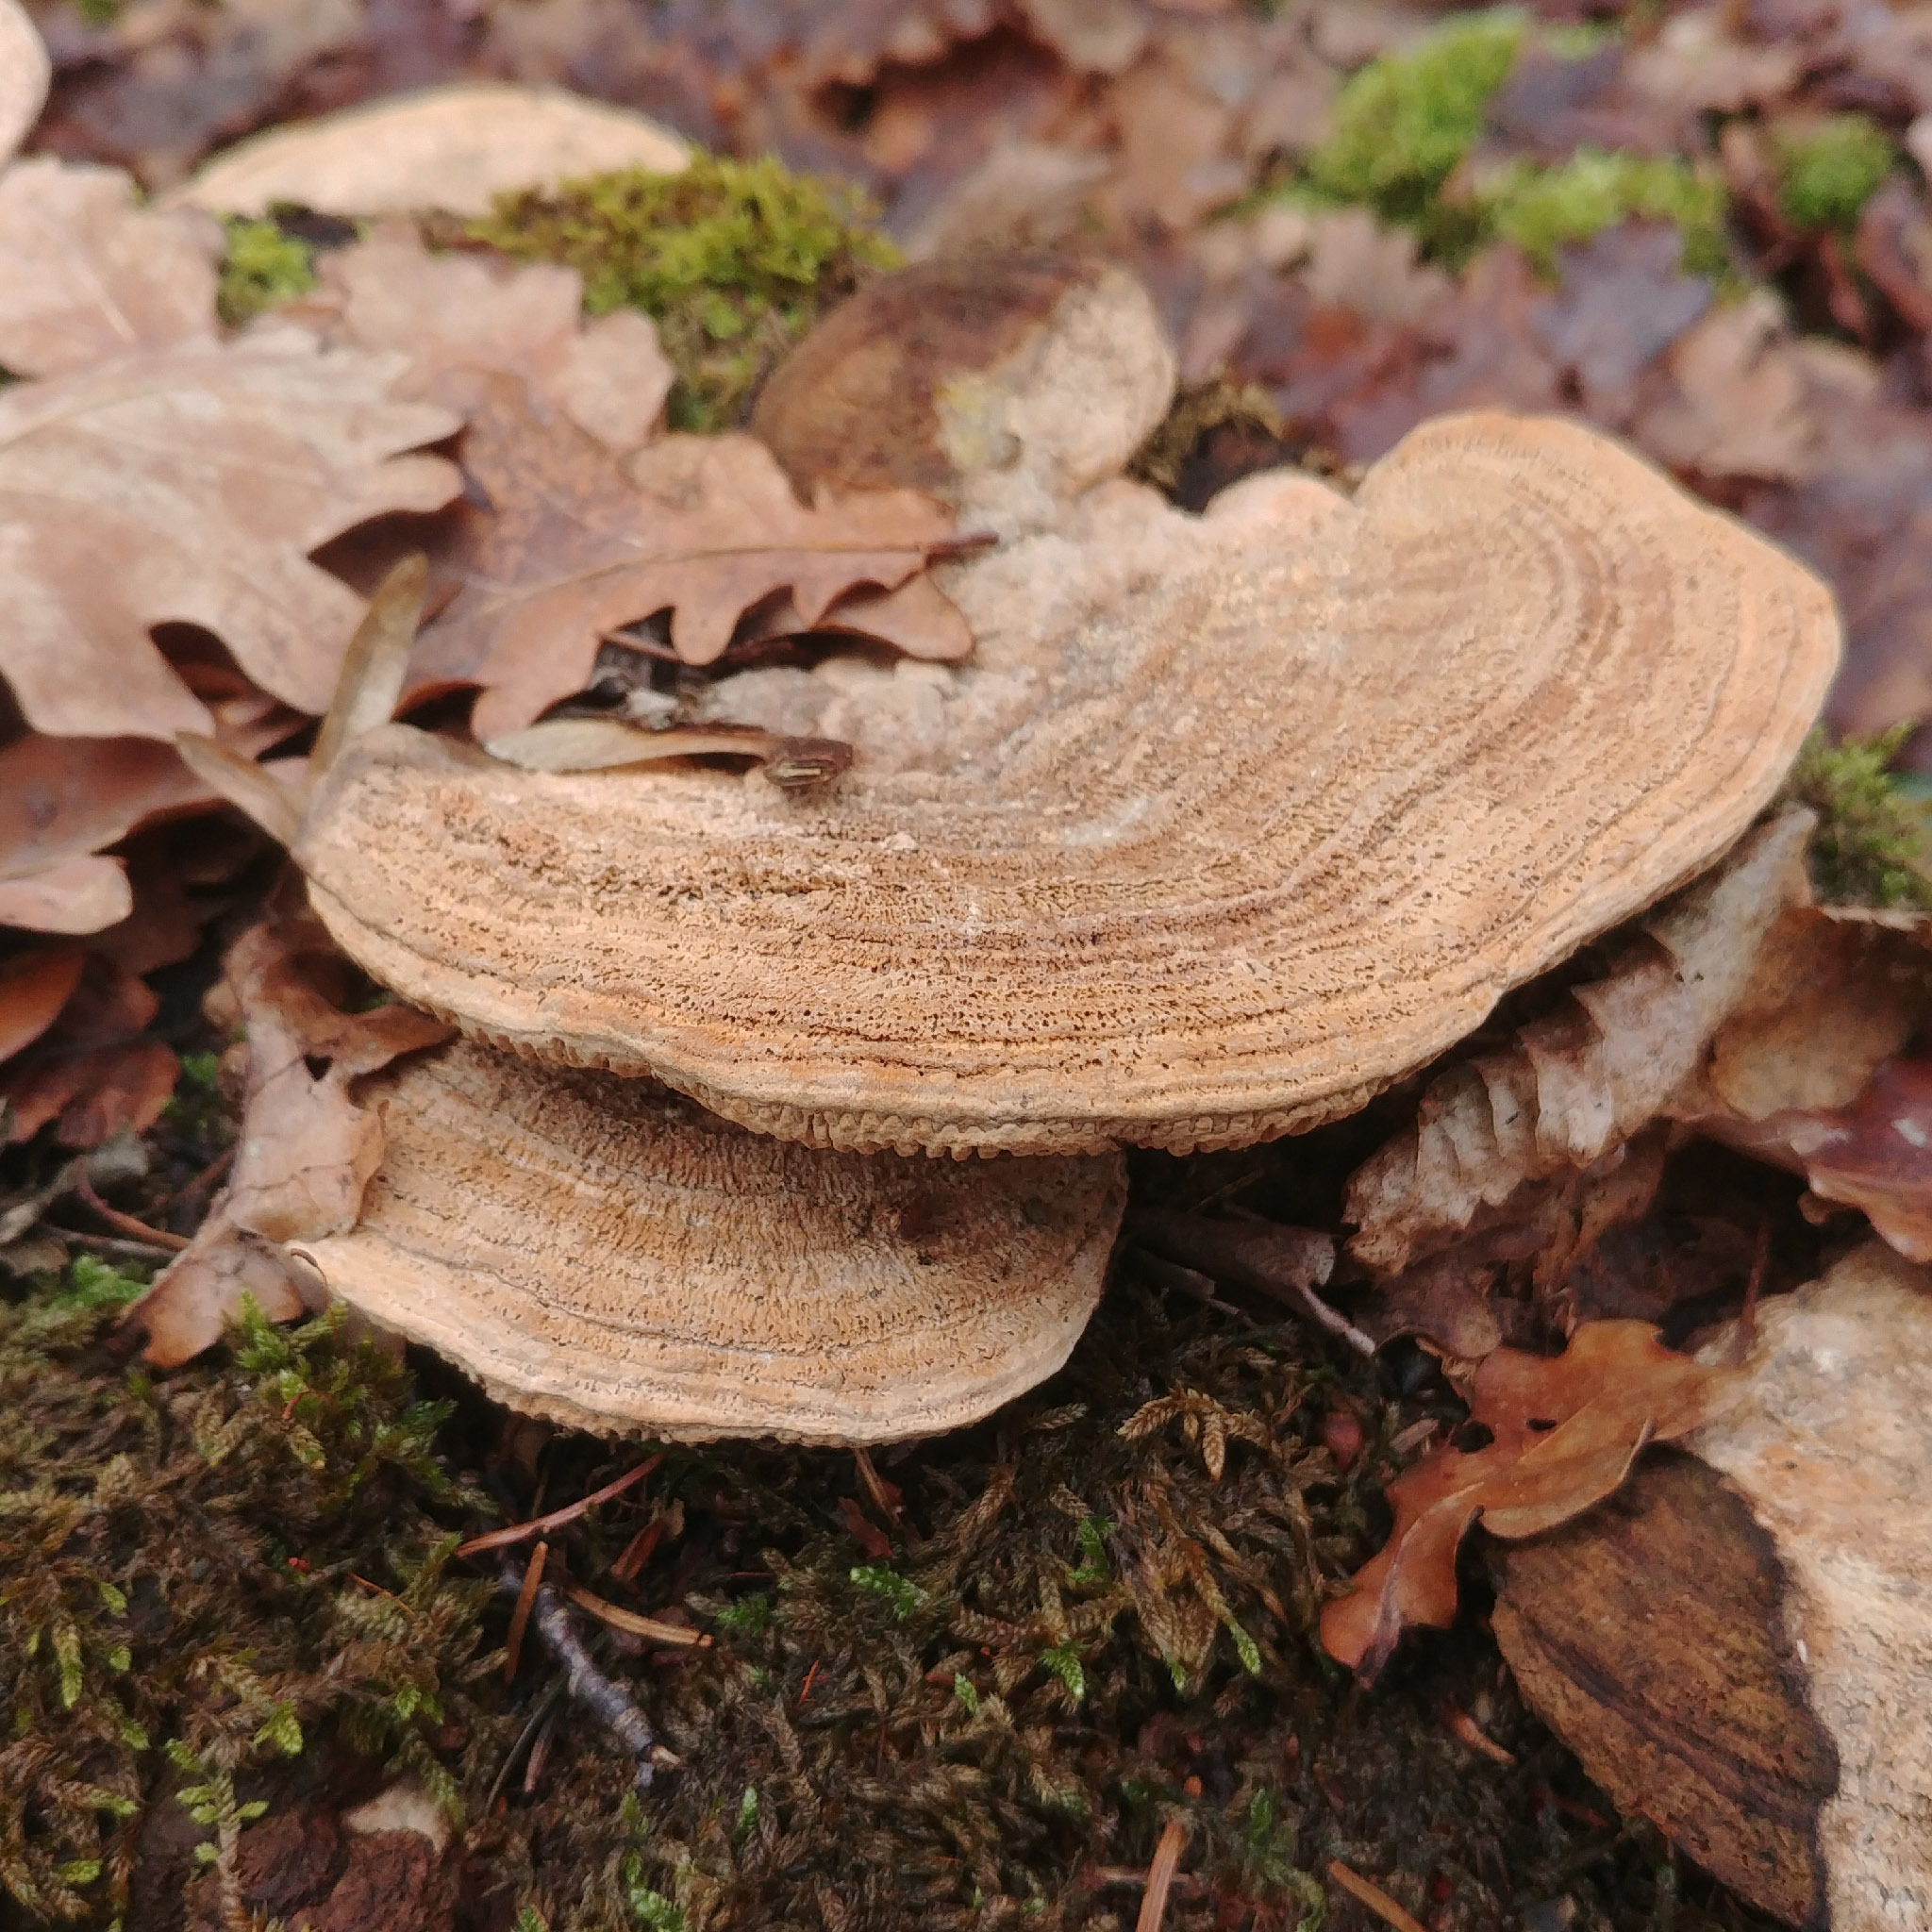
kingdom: Fungi
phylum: Basidiomycota
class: Agaricomycetes
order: Polyporales
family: Fomitopsidaceae
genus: Fomitopsis
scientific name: Fomitopsis
